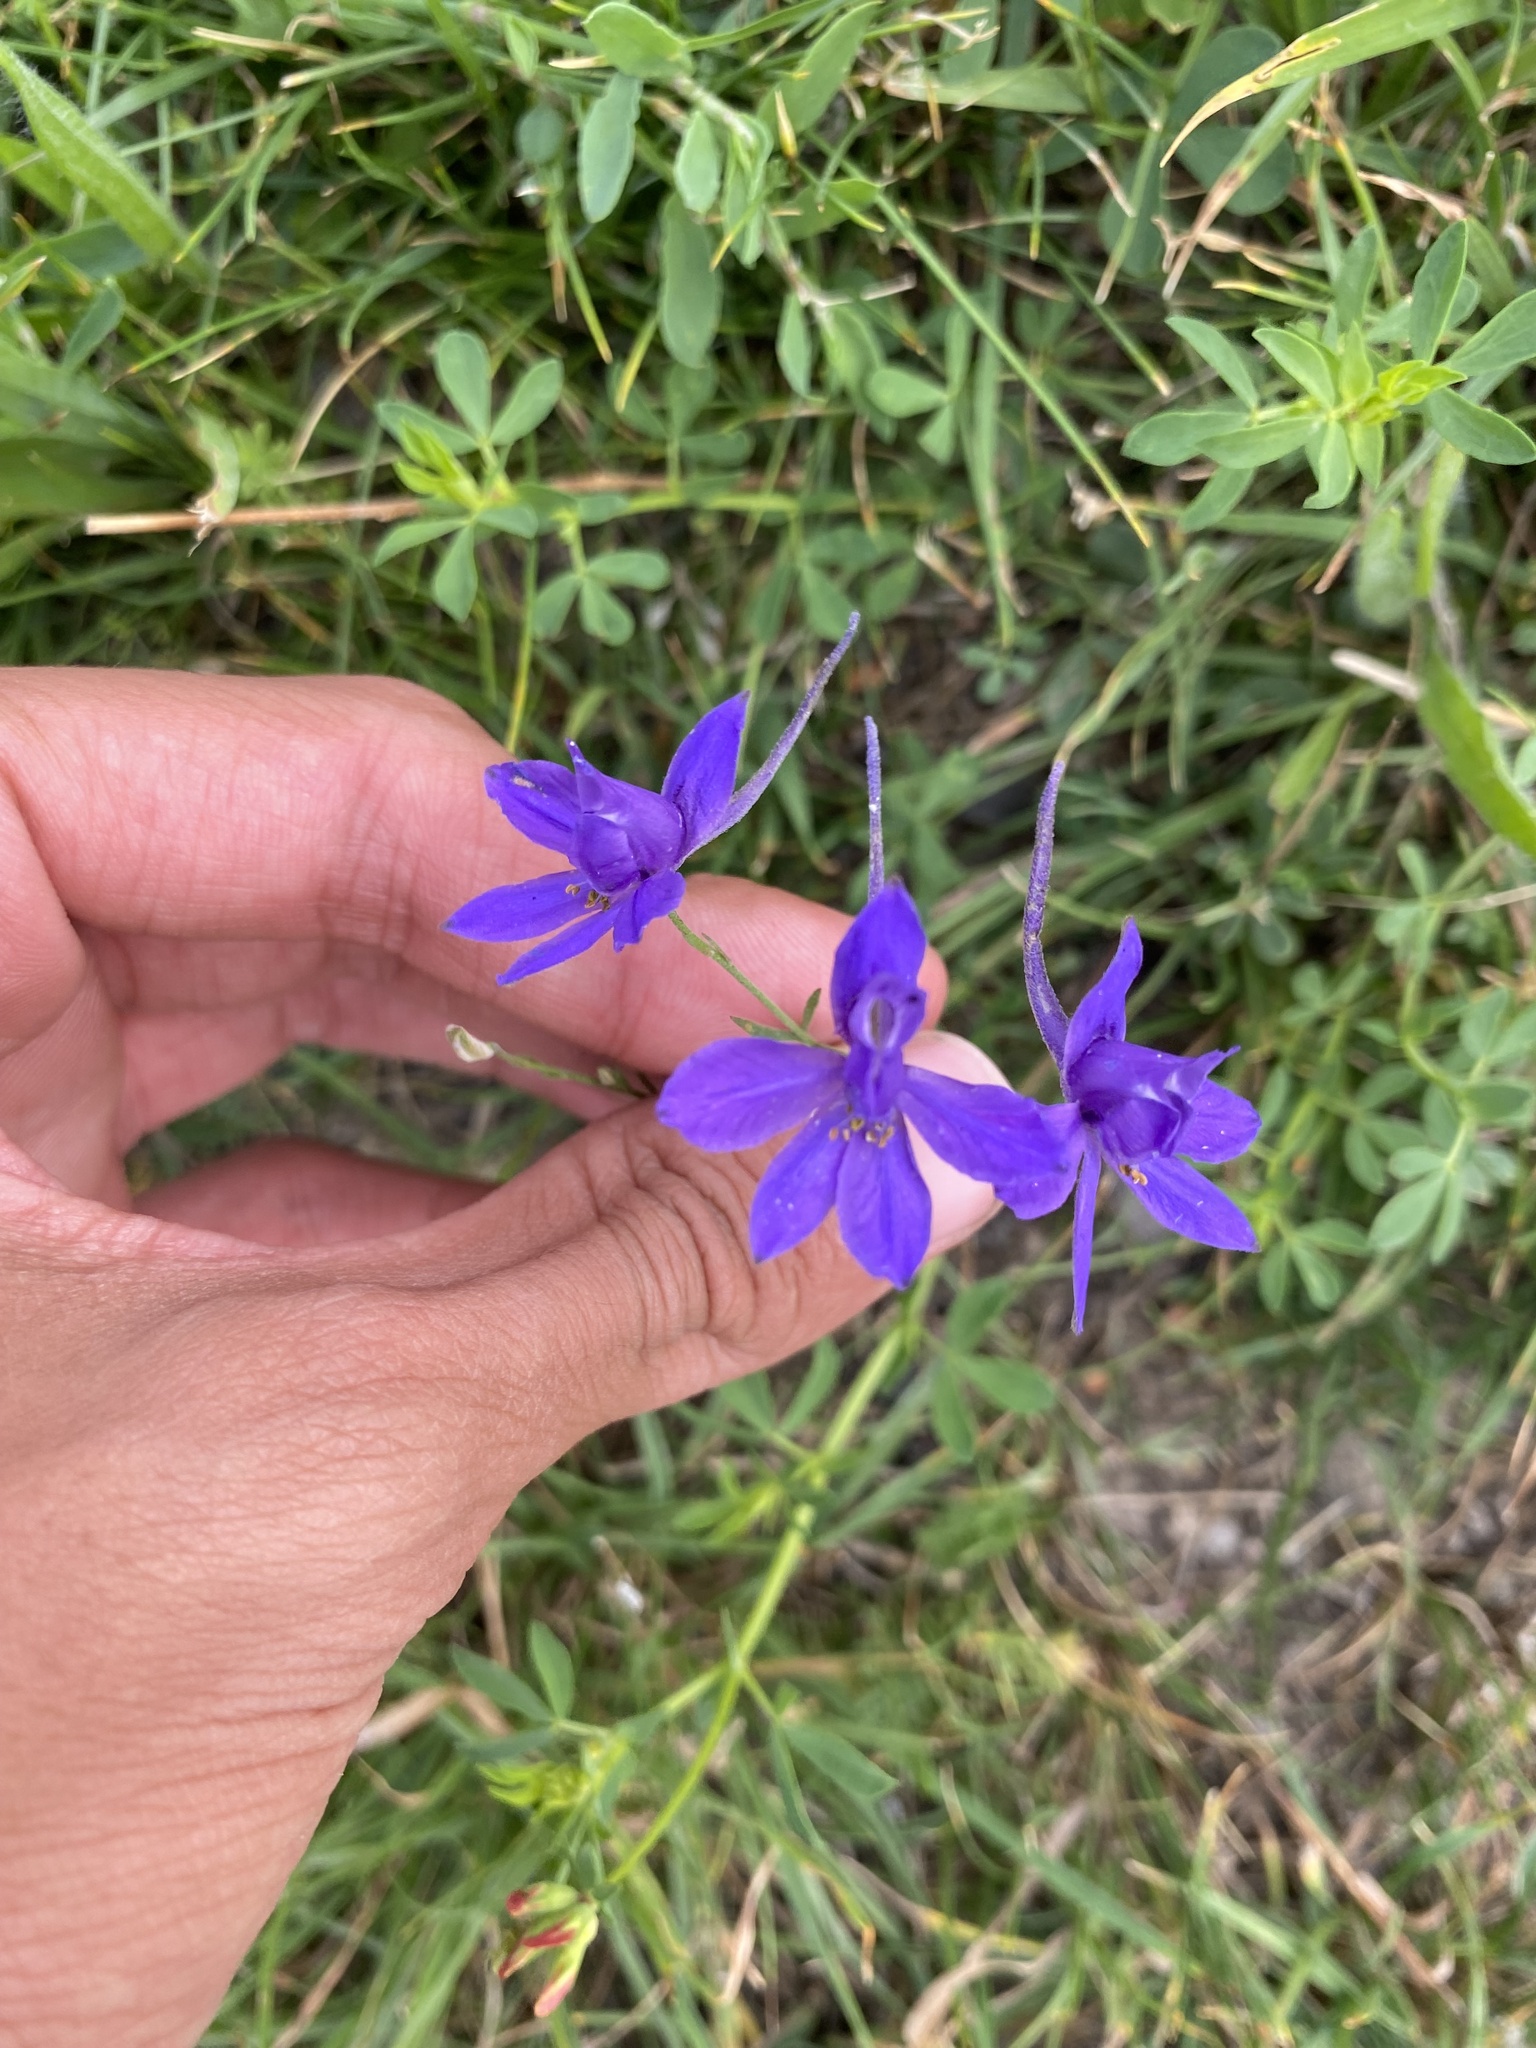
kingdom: Plantae
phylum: Tracheophyta
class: Magnoliopsida
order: Ranunculales
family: Ranunculaceae
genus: Delphinium
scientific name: Delphinium consolida
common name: Branching larkspur
